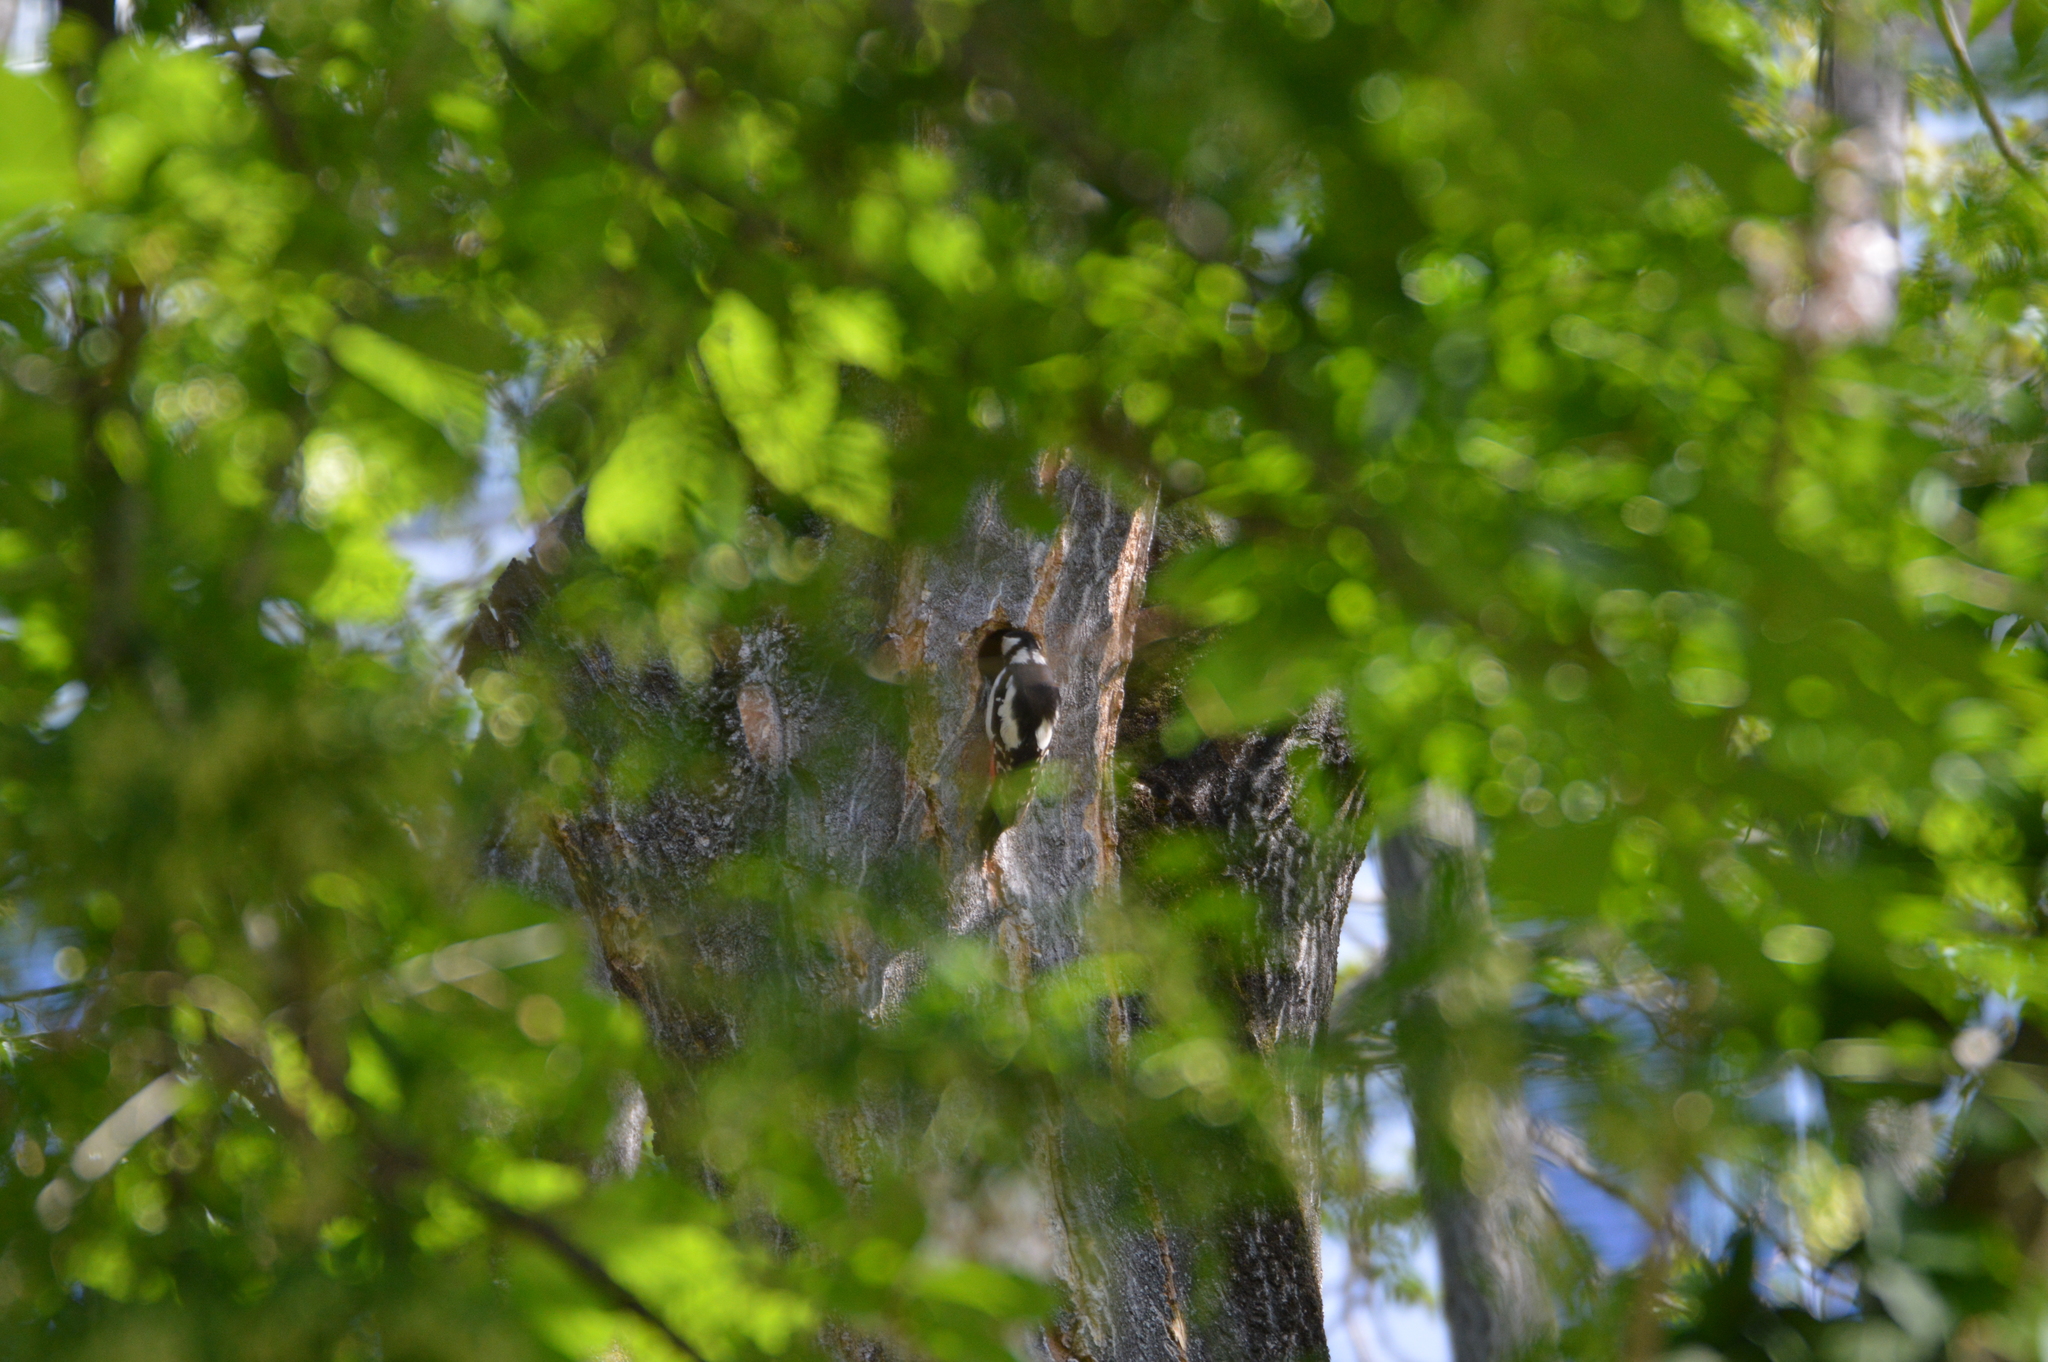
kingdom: Animalia
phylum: Chordata
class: Aves
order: Piciformes
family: Picidae
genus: Dendrocopos
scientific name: Dendrocopos major
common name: Great spotted woodpecker
